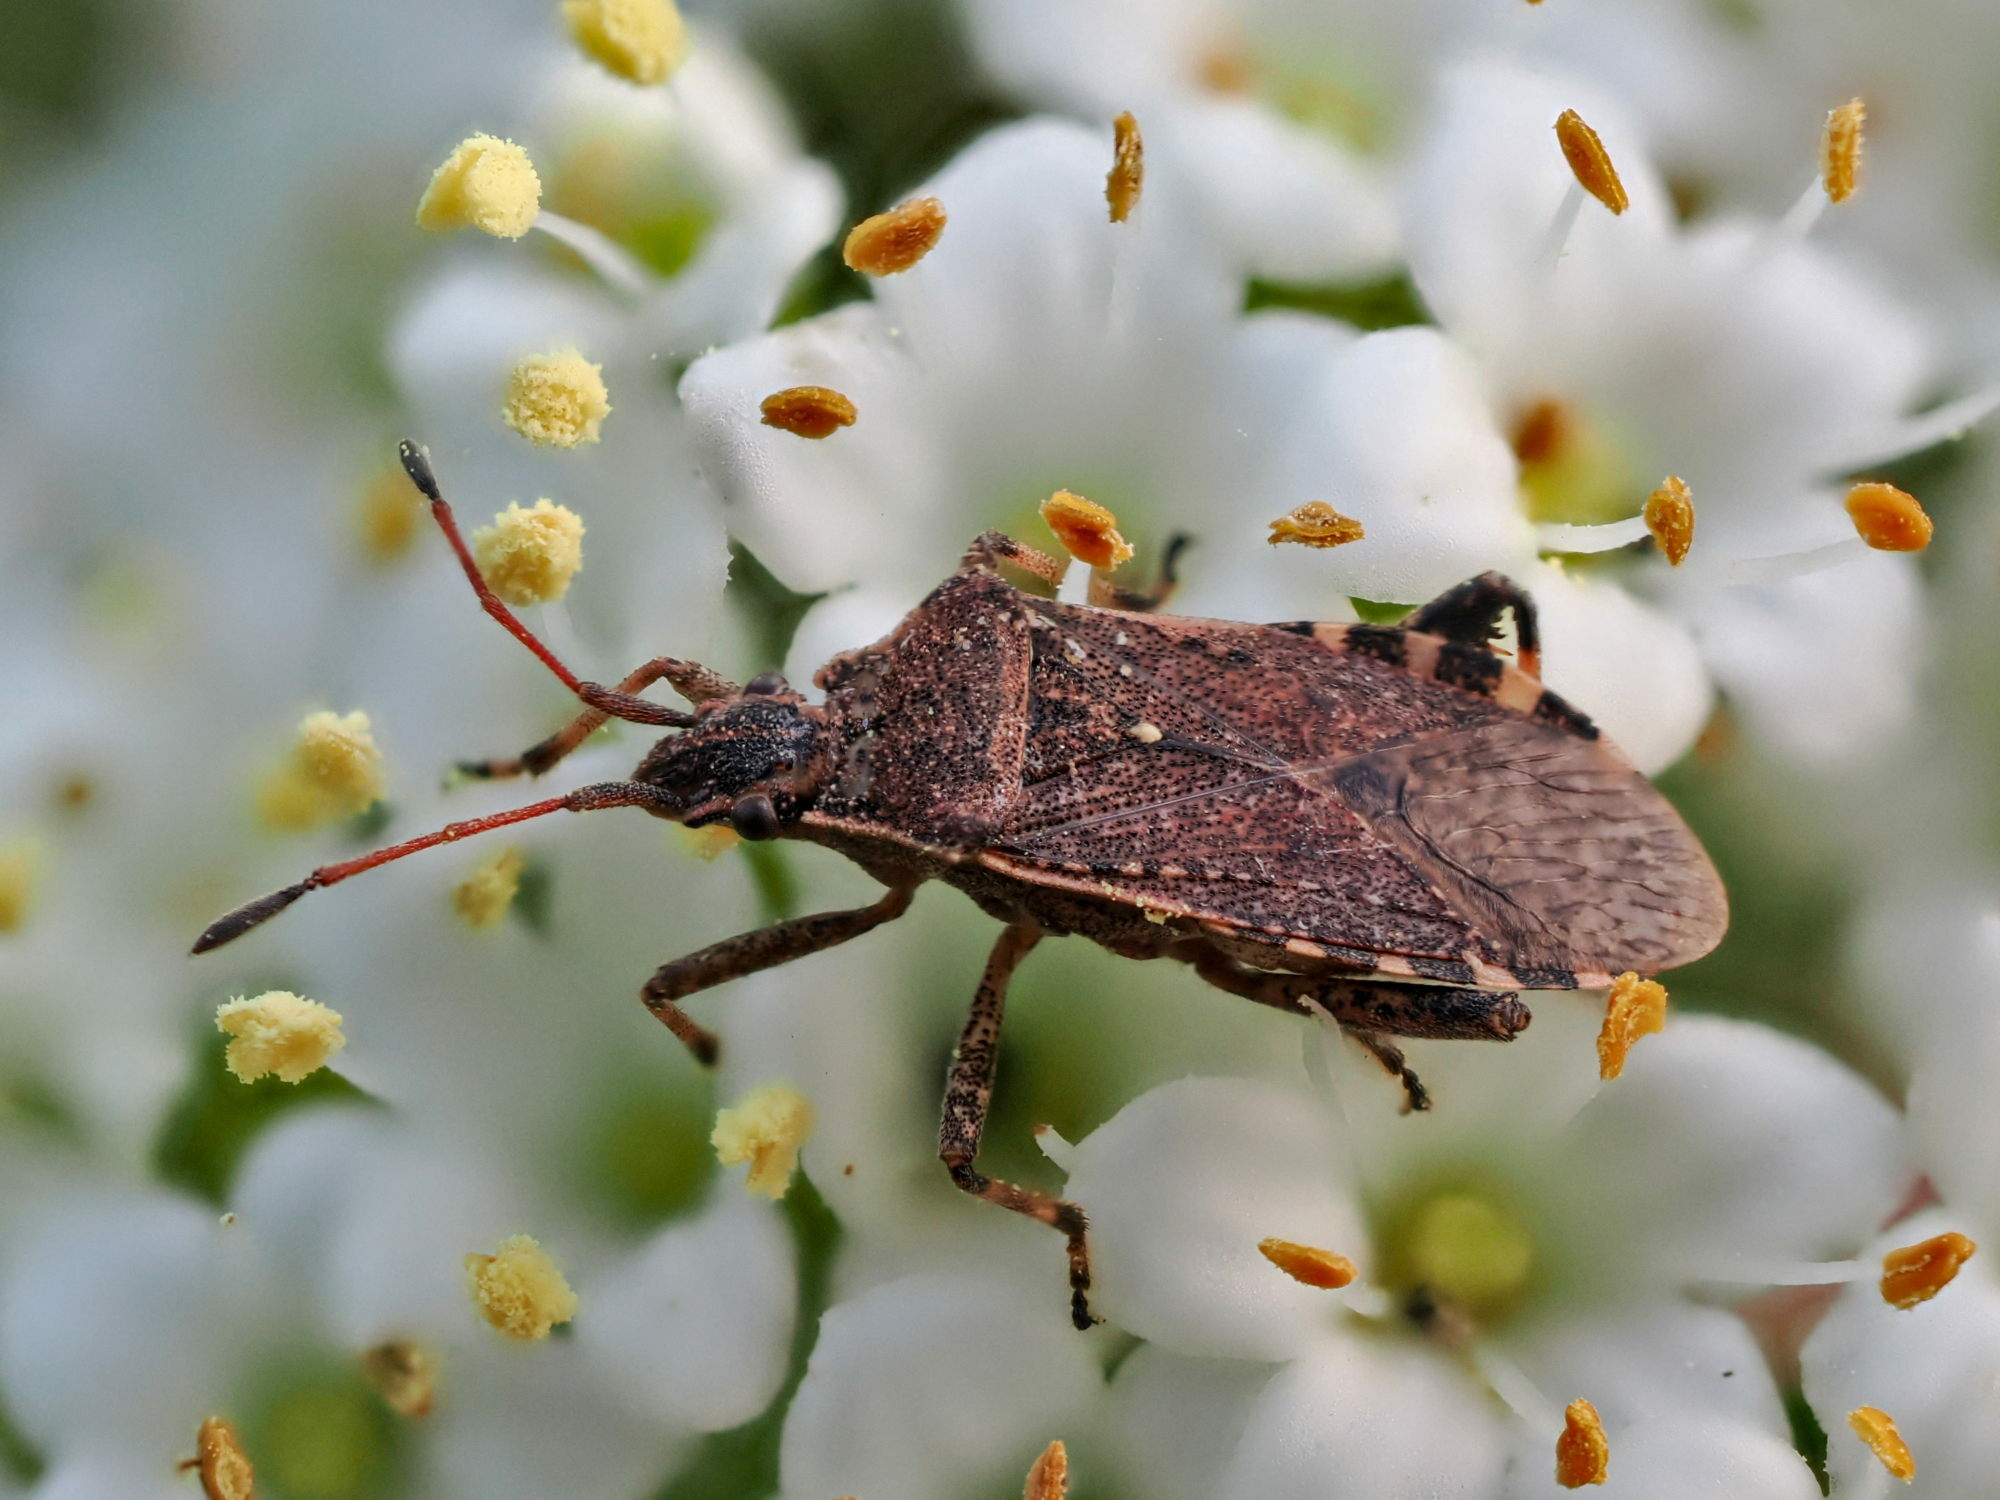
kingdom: Animalia
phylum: Arthropoda
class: Insecta
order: Hemiptera
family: Coreidae
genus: Ceraleptus
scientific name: Ceraleptus gracilicornis
